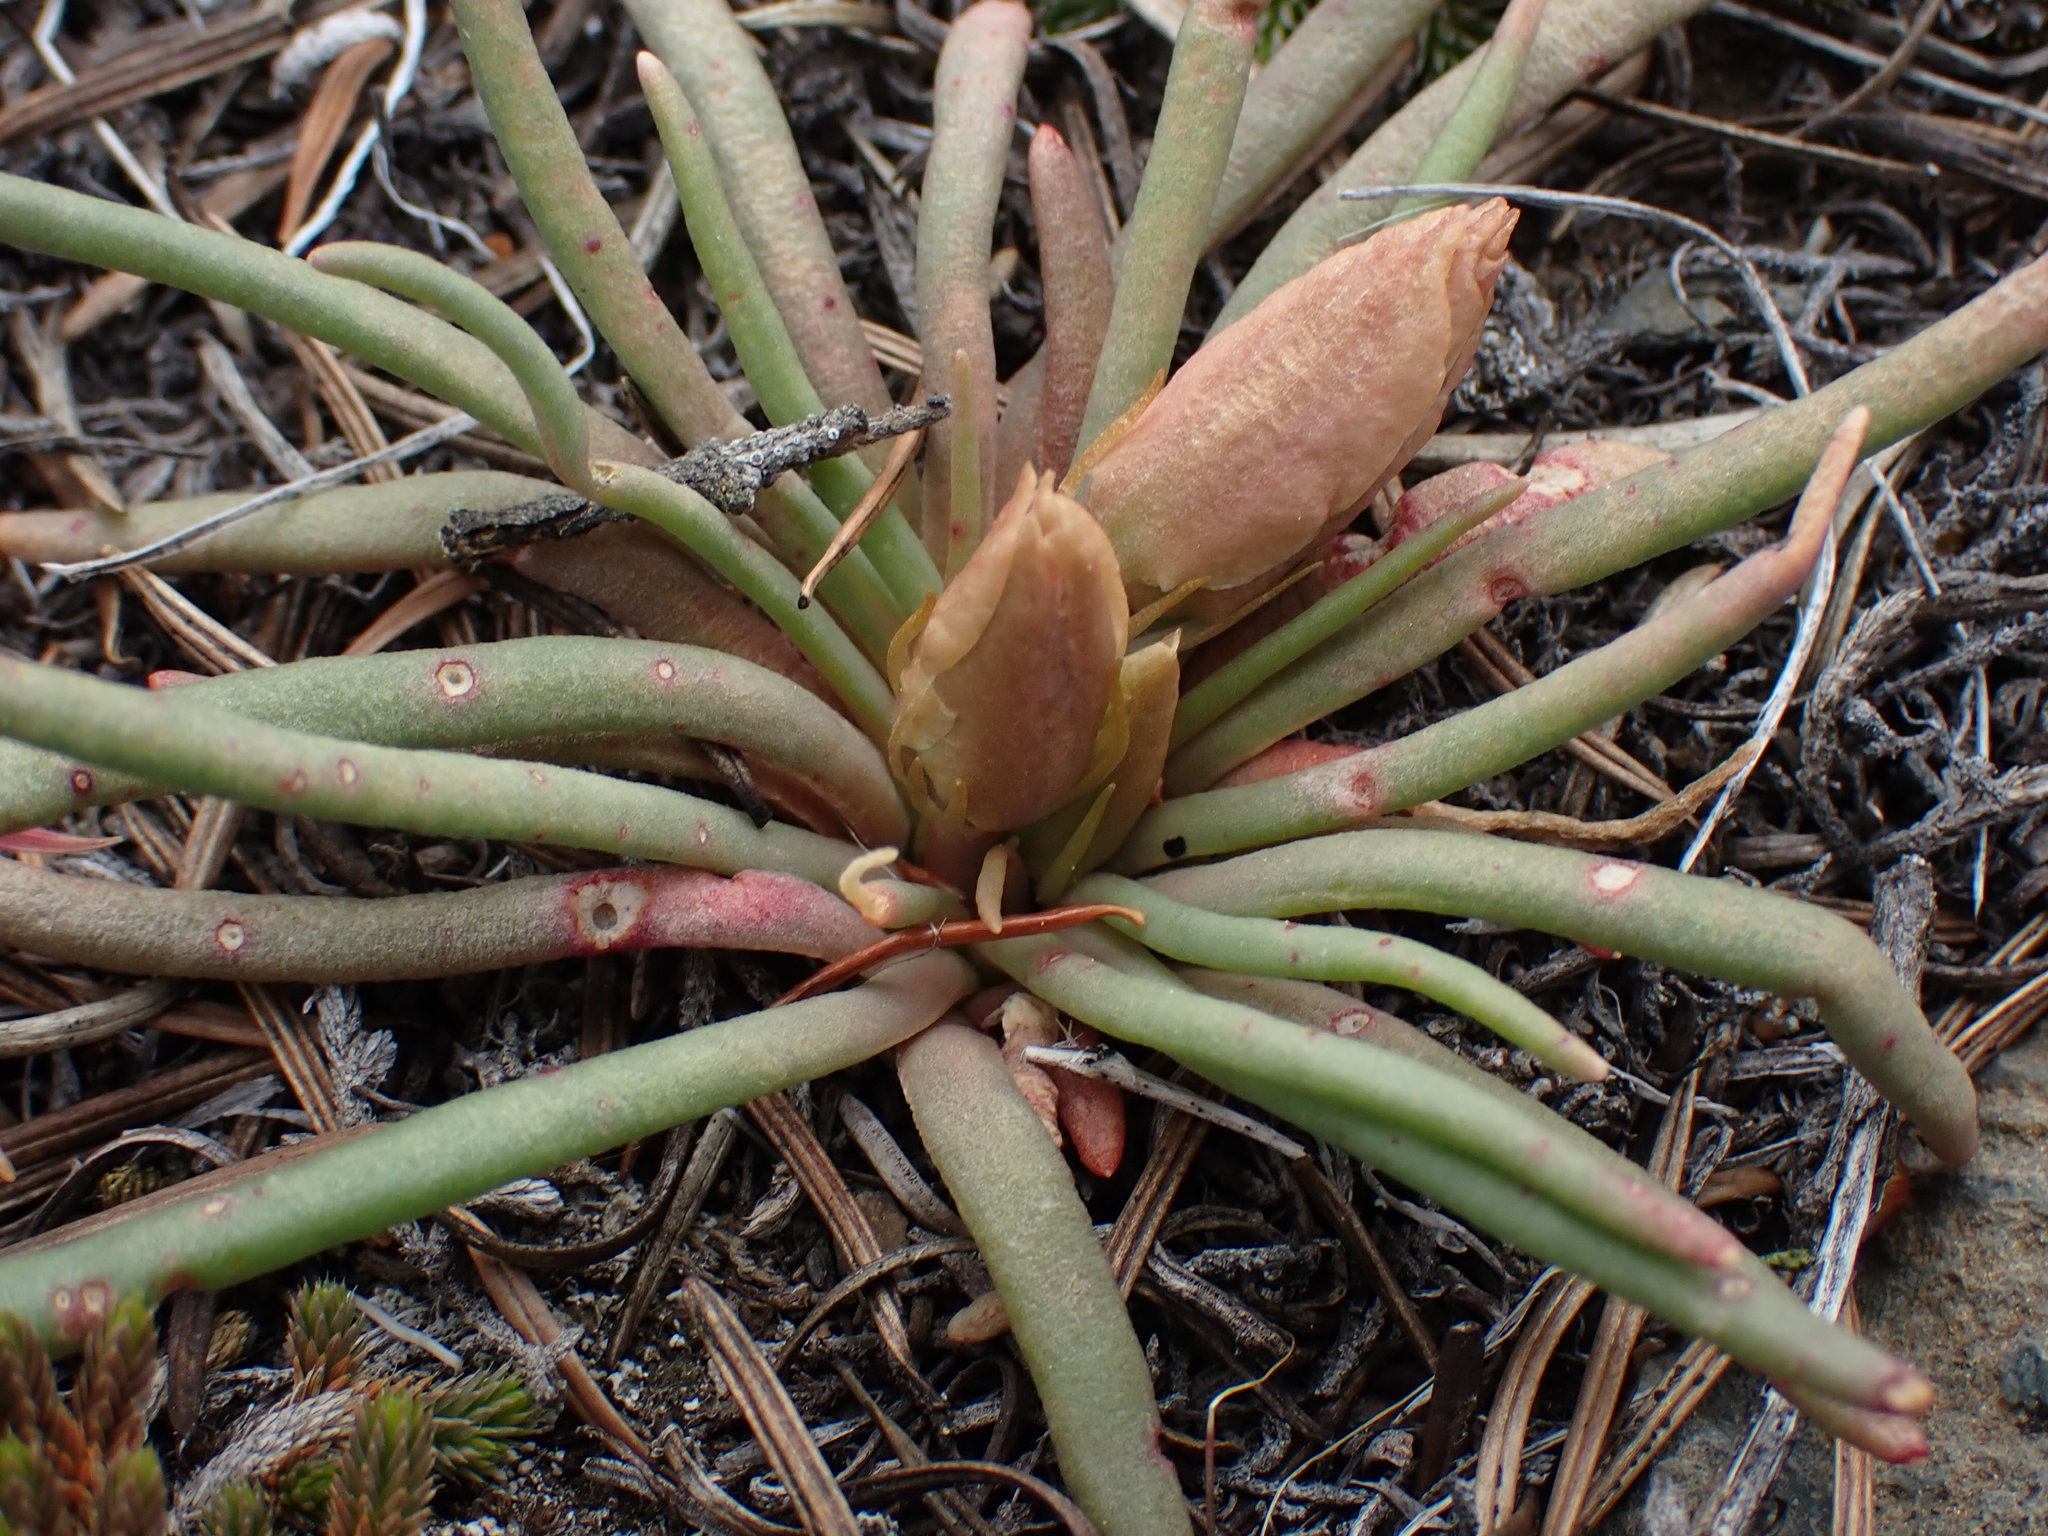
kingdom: Plantae
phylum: Tracheophyta
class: Magnoliopsida
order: Caryophyllales
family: Montiaceae
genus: Lewisia
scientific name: Lewisia rediviva
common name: Bitter-root
